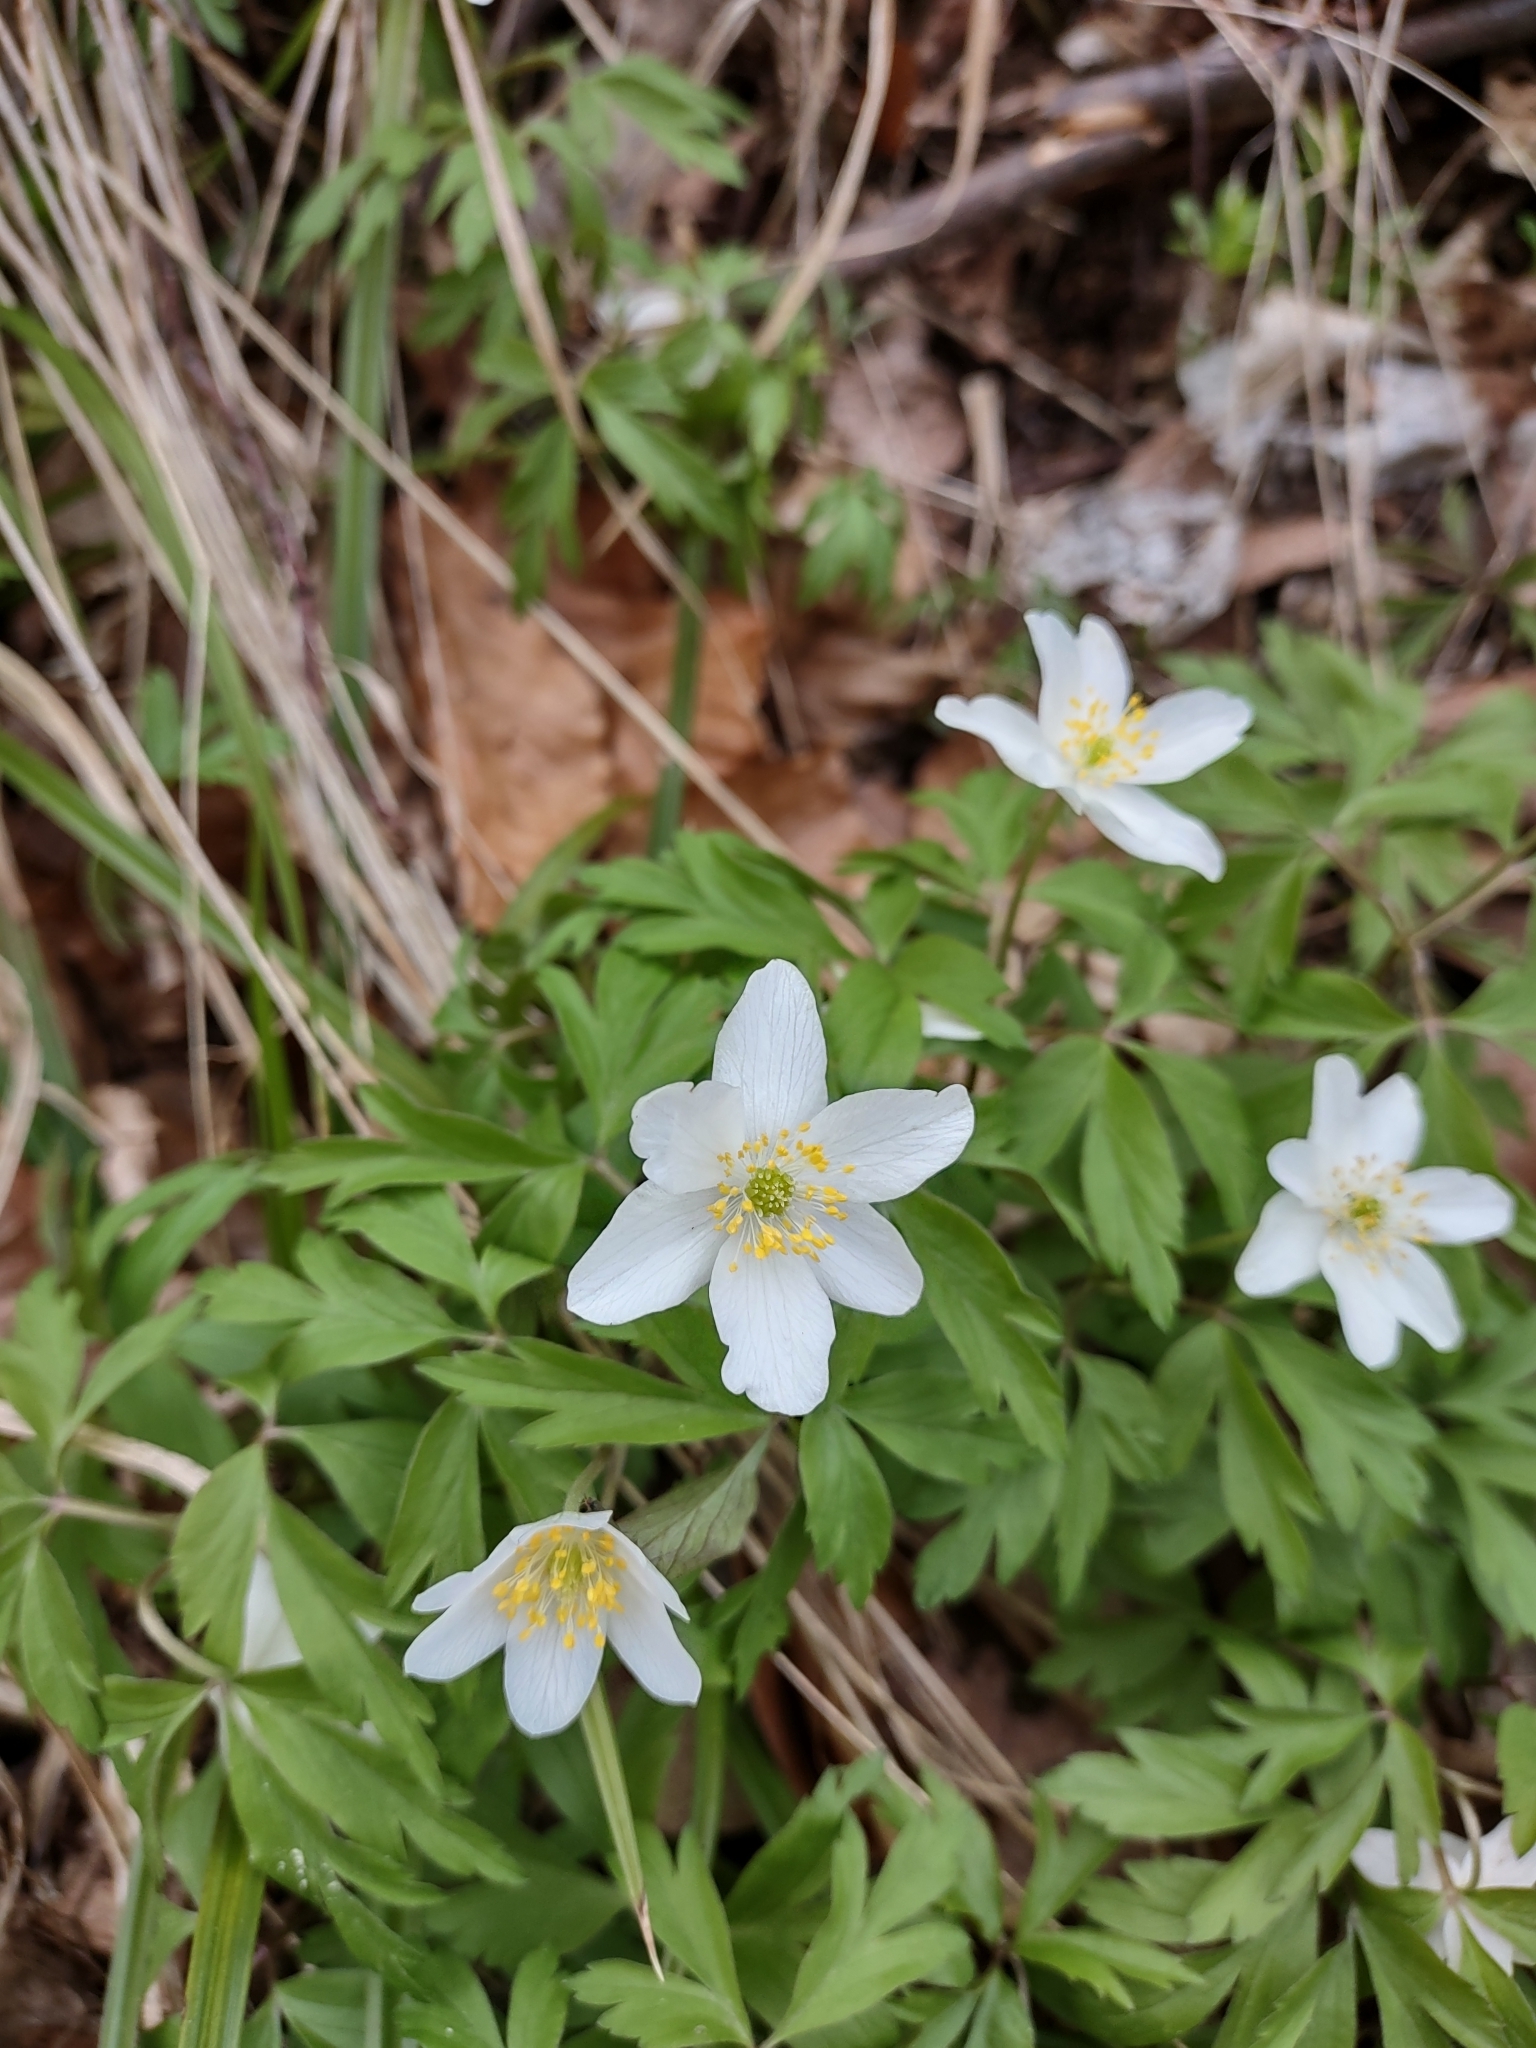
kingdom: Plantae
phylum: Tracheophyta
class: Magnoliopsida
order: Ranunculales
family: Ranunculaceae
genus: Anemone
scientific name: Anemone nemorosa
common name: Wood anemone
